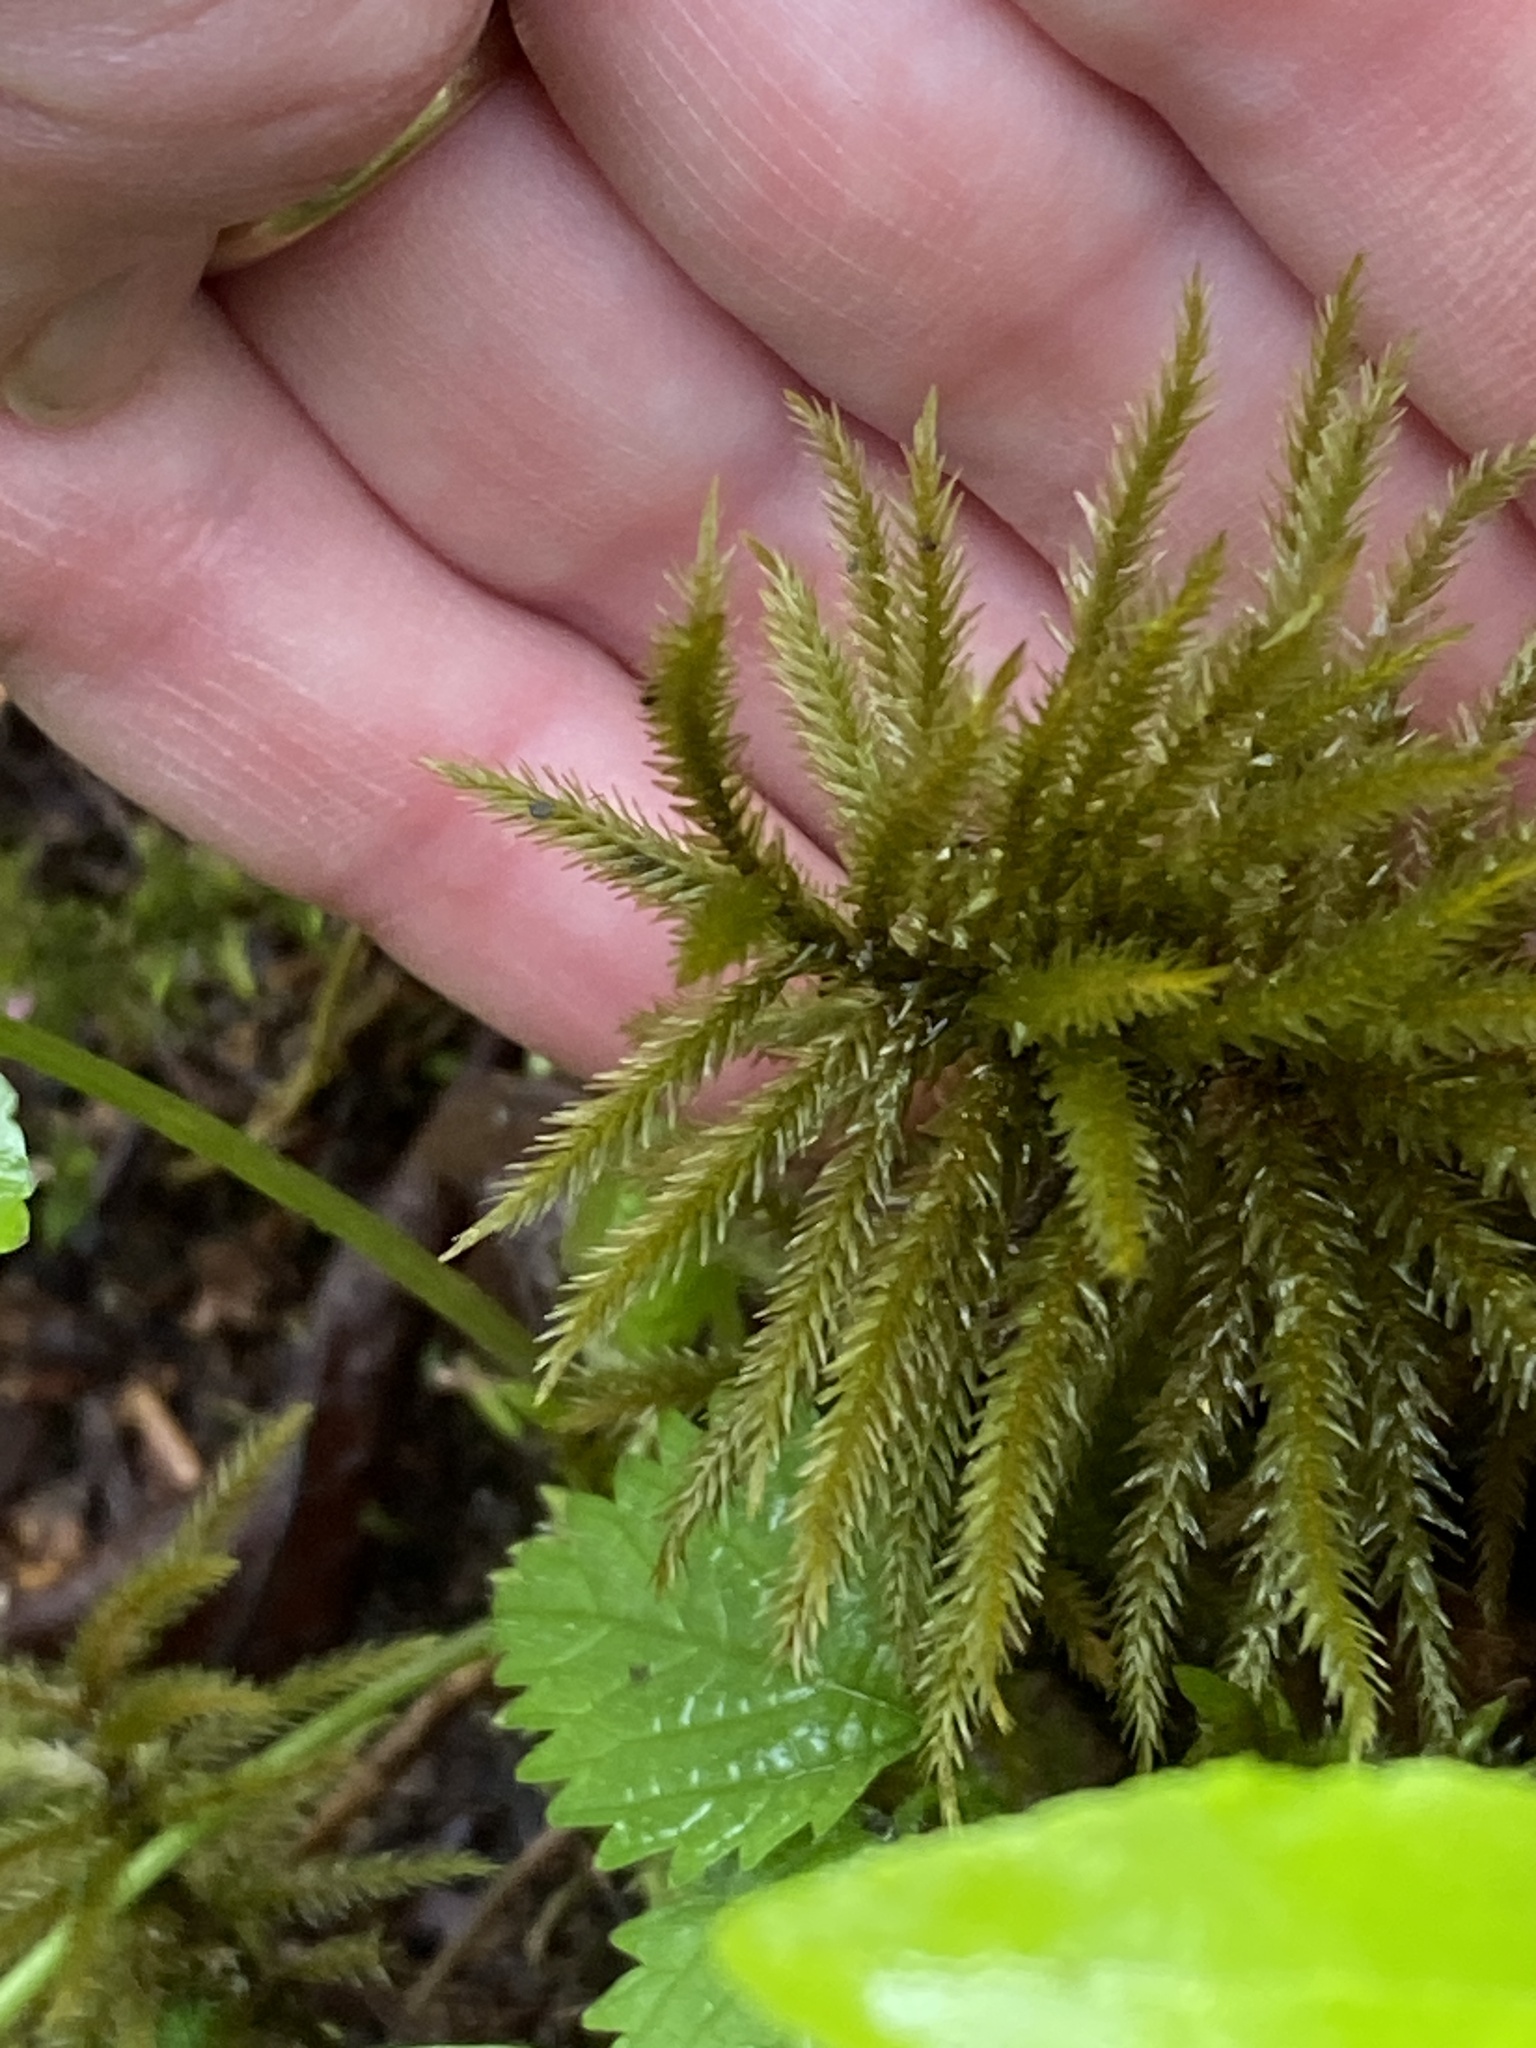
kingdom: Plantae
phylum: Bryophyta
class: Bryopsida
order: Hypnales
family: Climaciaceae
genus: Climacium
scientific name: Climacium americanum
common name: American tree moss
